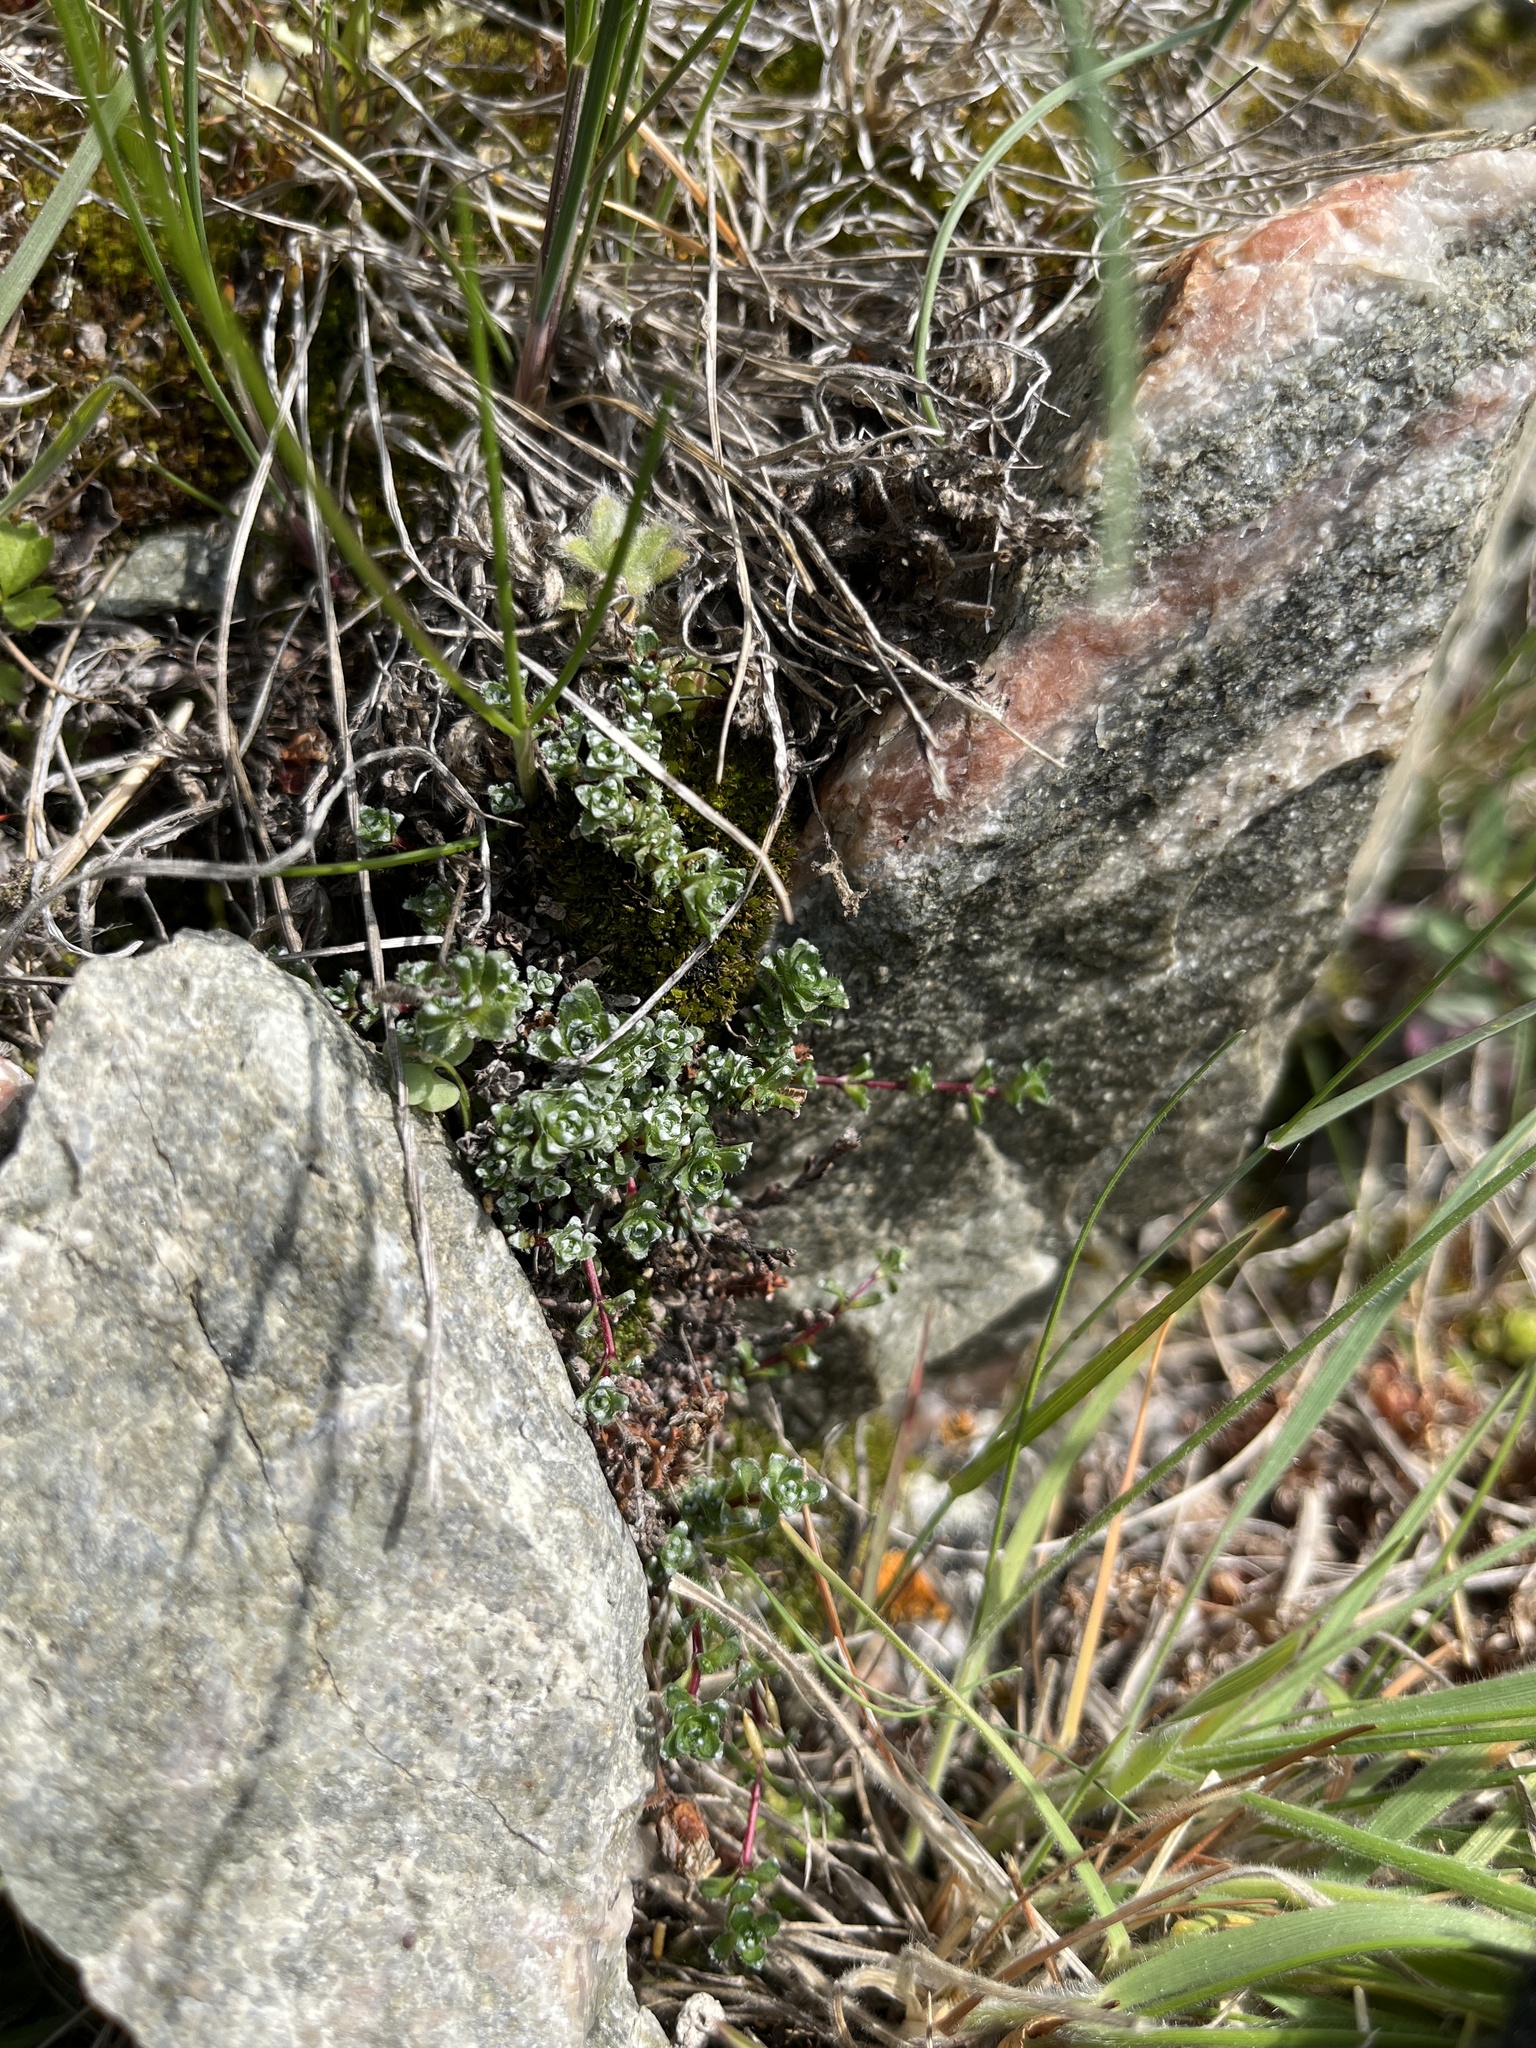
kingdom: Plantae
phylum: Tracheophyta
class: Magnoliopsida
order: Saxifragales
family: Saxifragaceae
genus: Saxifraga
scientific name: Saxifraga oppositifolia
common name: Purple saxifrage
